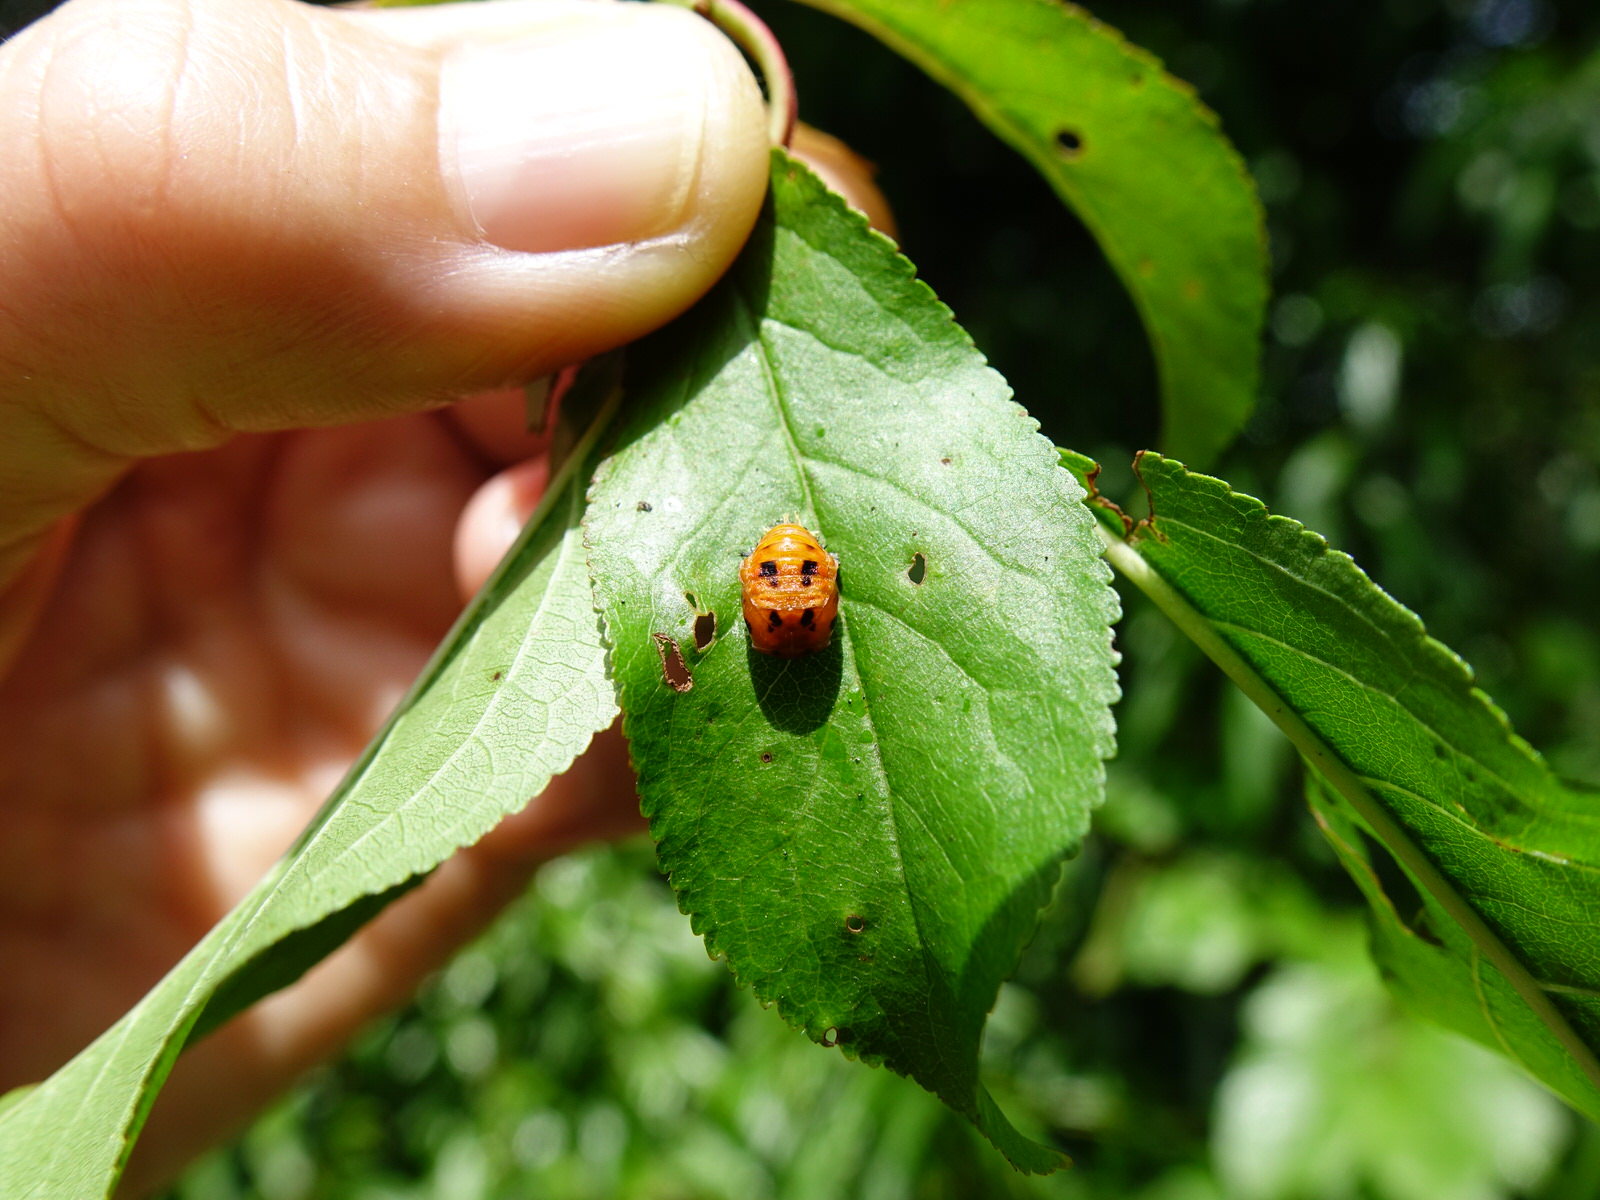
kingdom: Animalia
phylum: Arthropoda
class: Insecta
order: Coleoptera
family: Coccinellidae
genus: Harmonia
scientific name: Harmonia axyridis
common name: Harlequin ladybird
